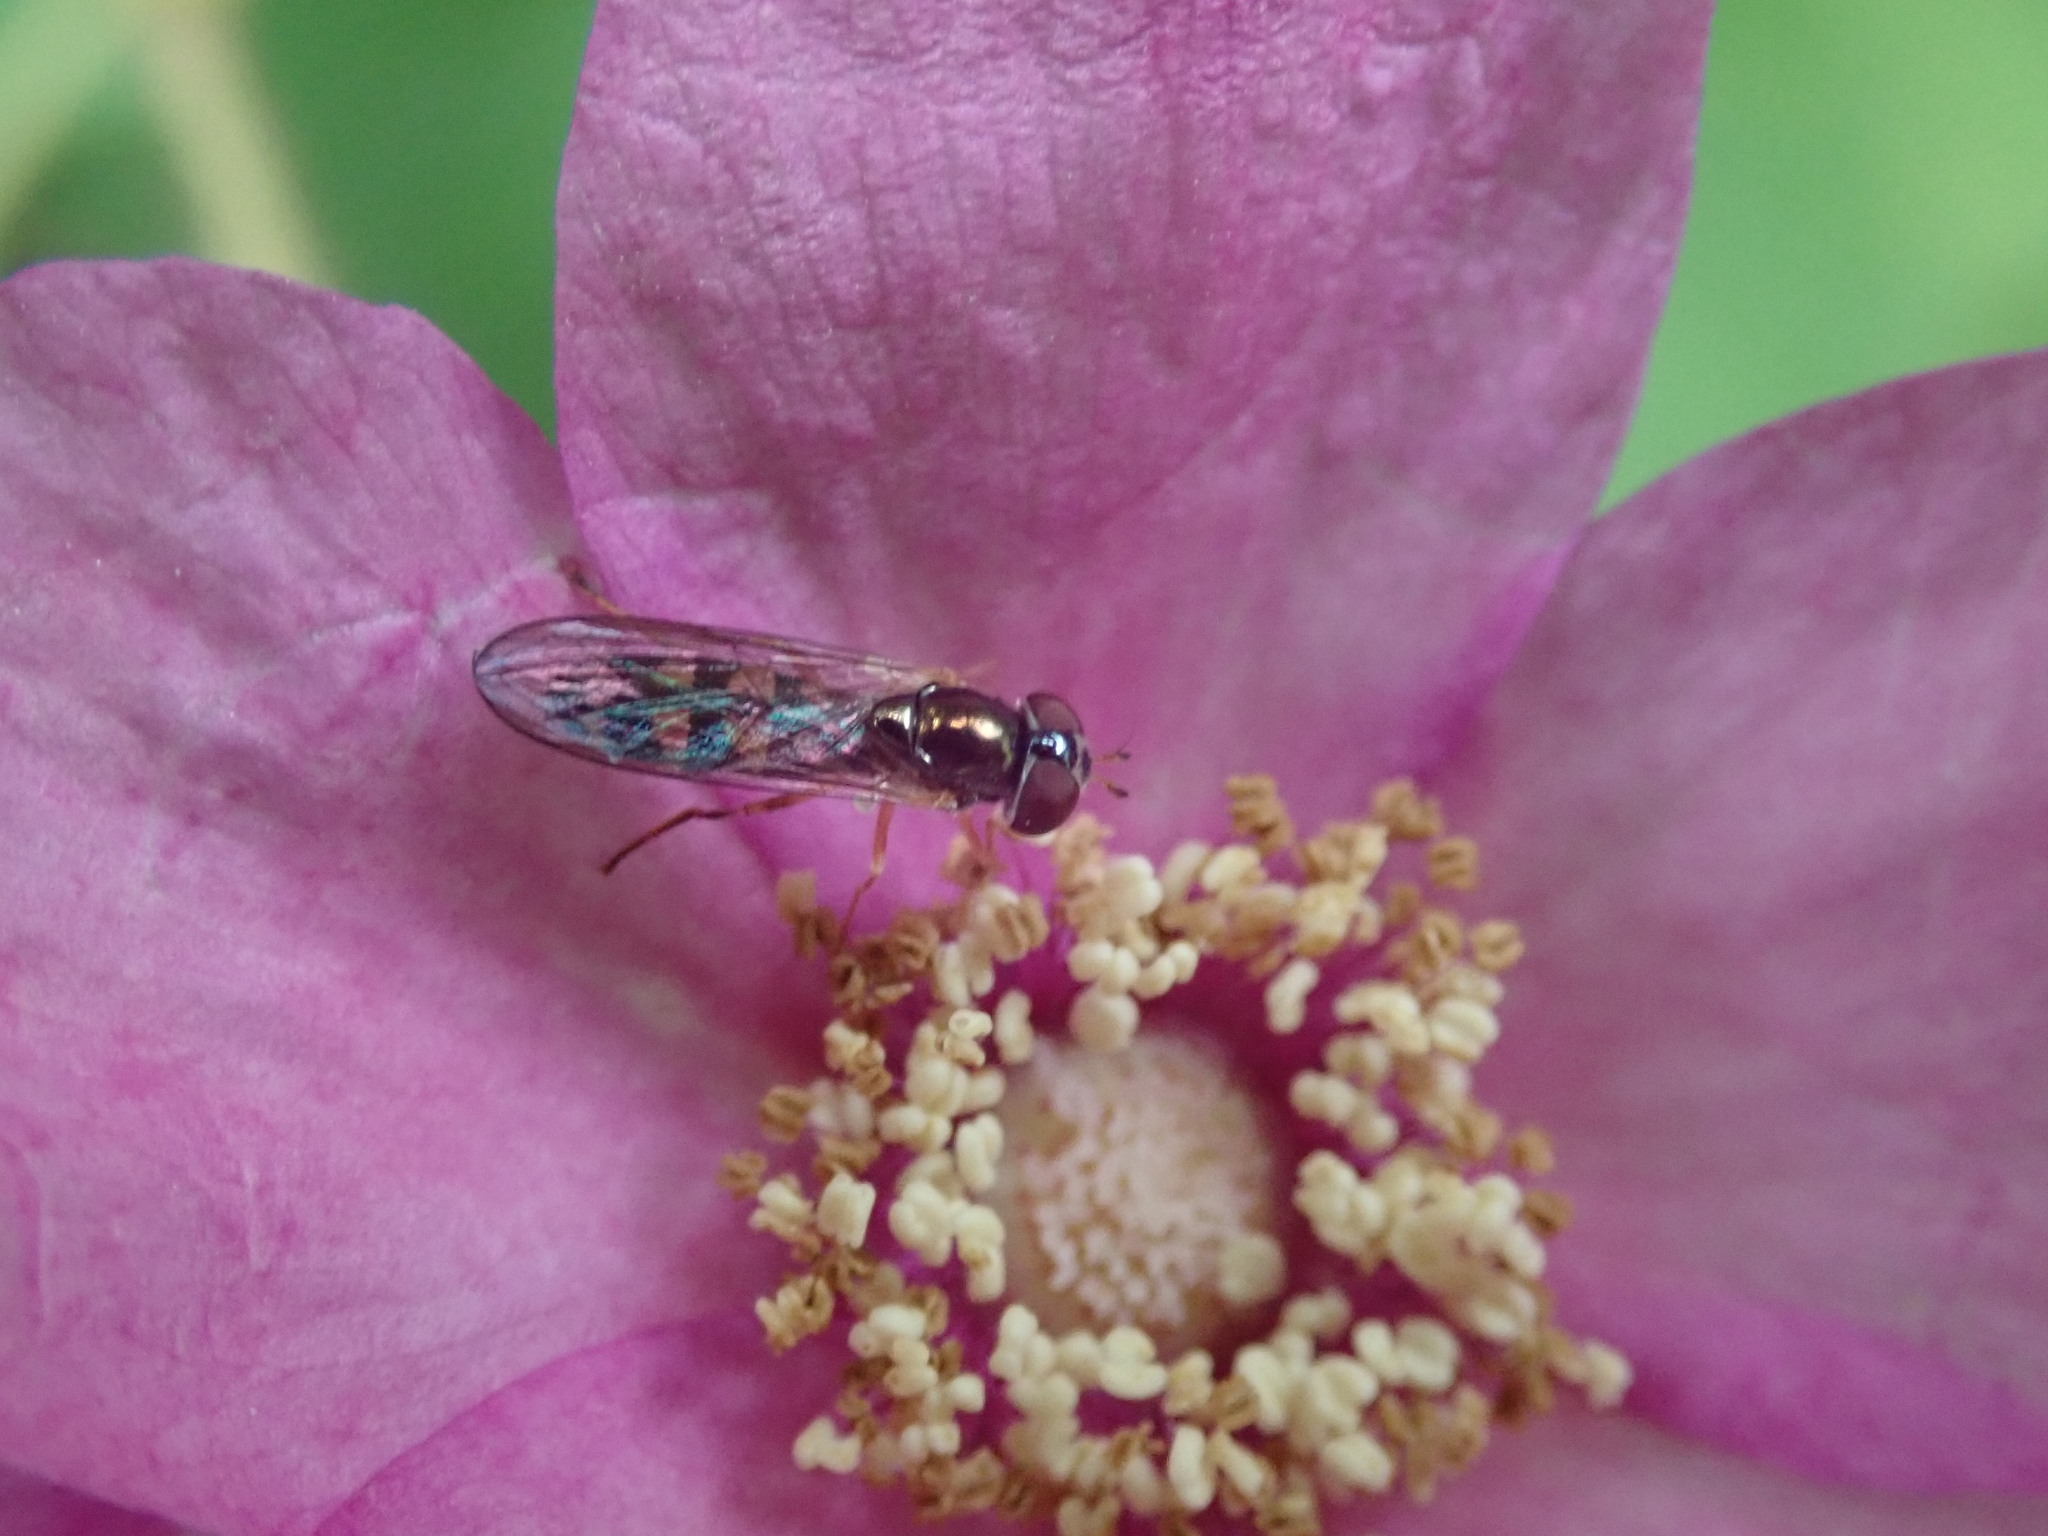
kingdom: Animalia
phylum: Arthropoda
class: Insecta
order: Diptera
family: Syrphidae
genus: Melanostoma
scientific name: Melanostoma mellina
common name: Hover fly
